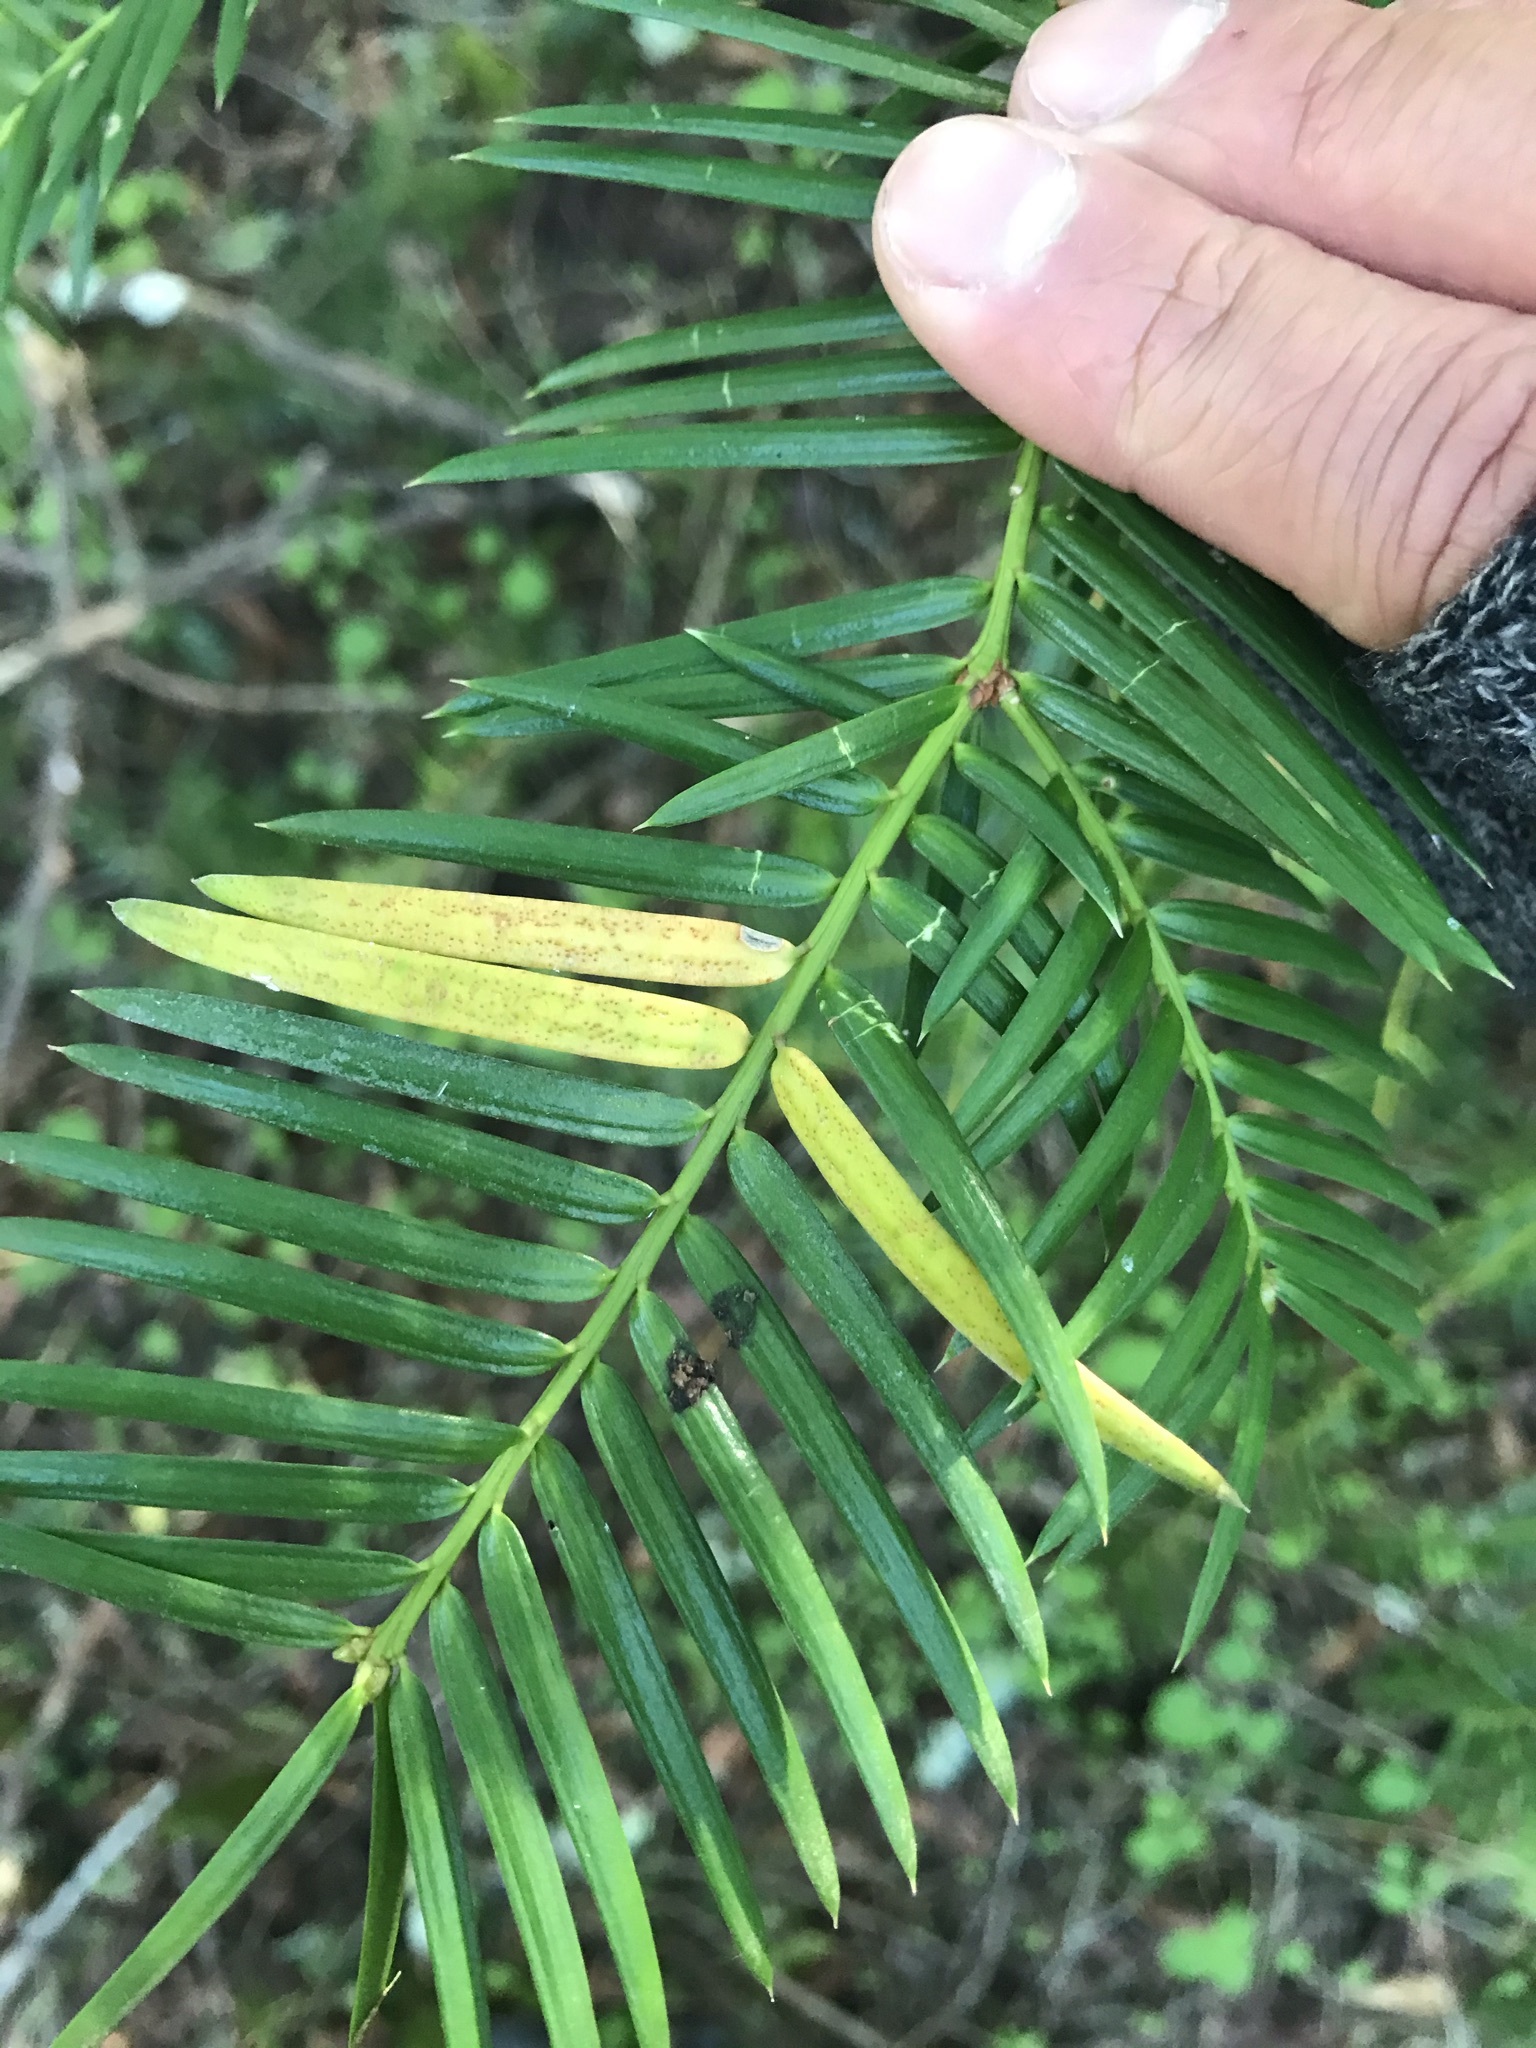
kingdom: Fungi
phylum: Basidiomycota
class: Pucciniomycetes
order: Pucciniales
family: Rogerpetersoniaceae
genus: Rogerpetersonia
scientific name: Rogerpetersonia torreyae
